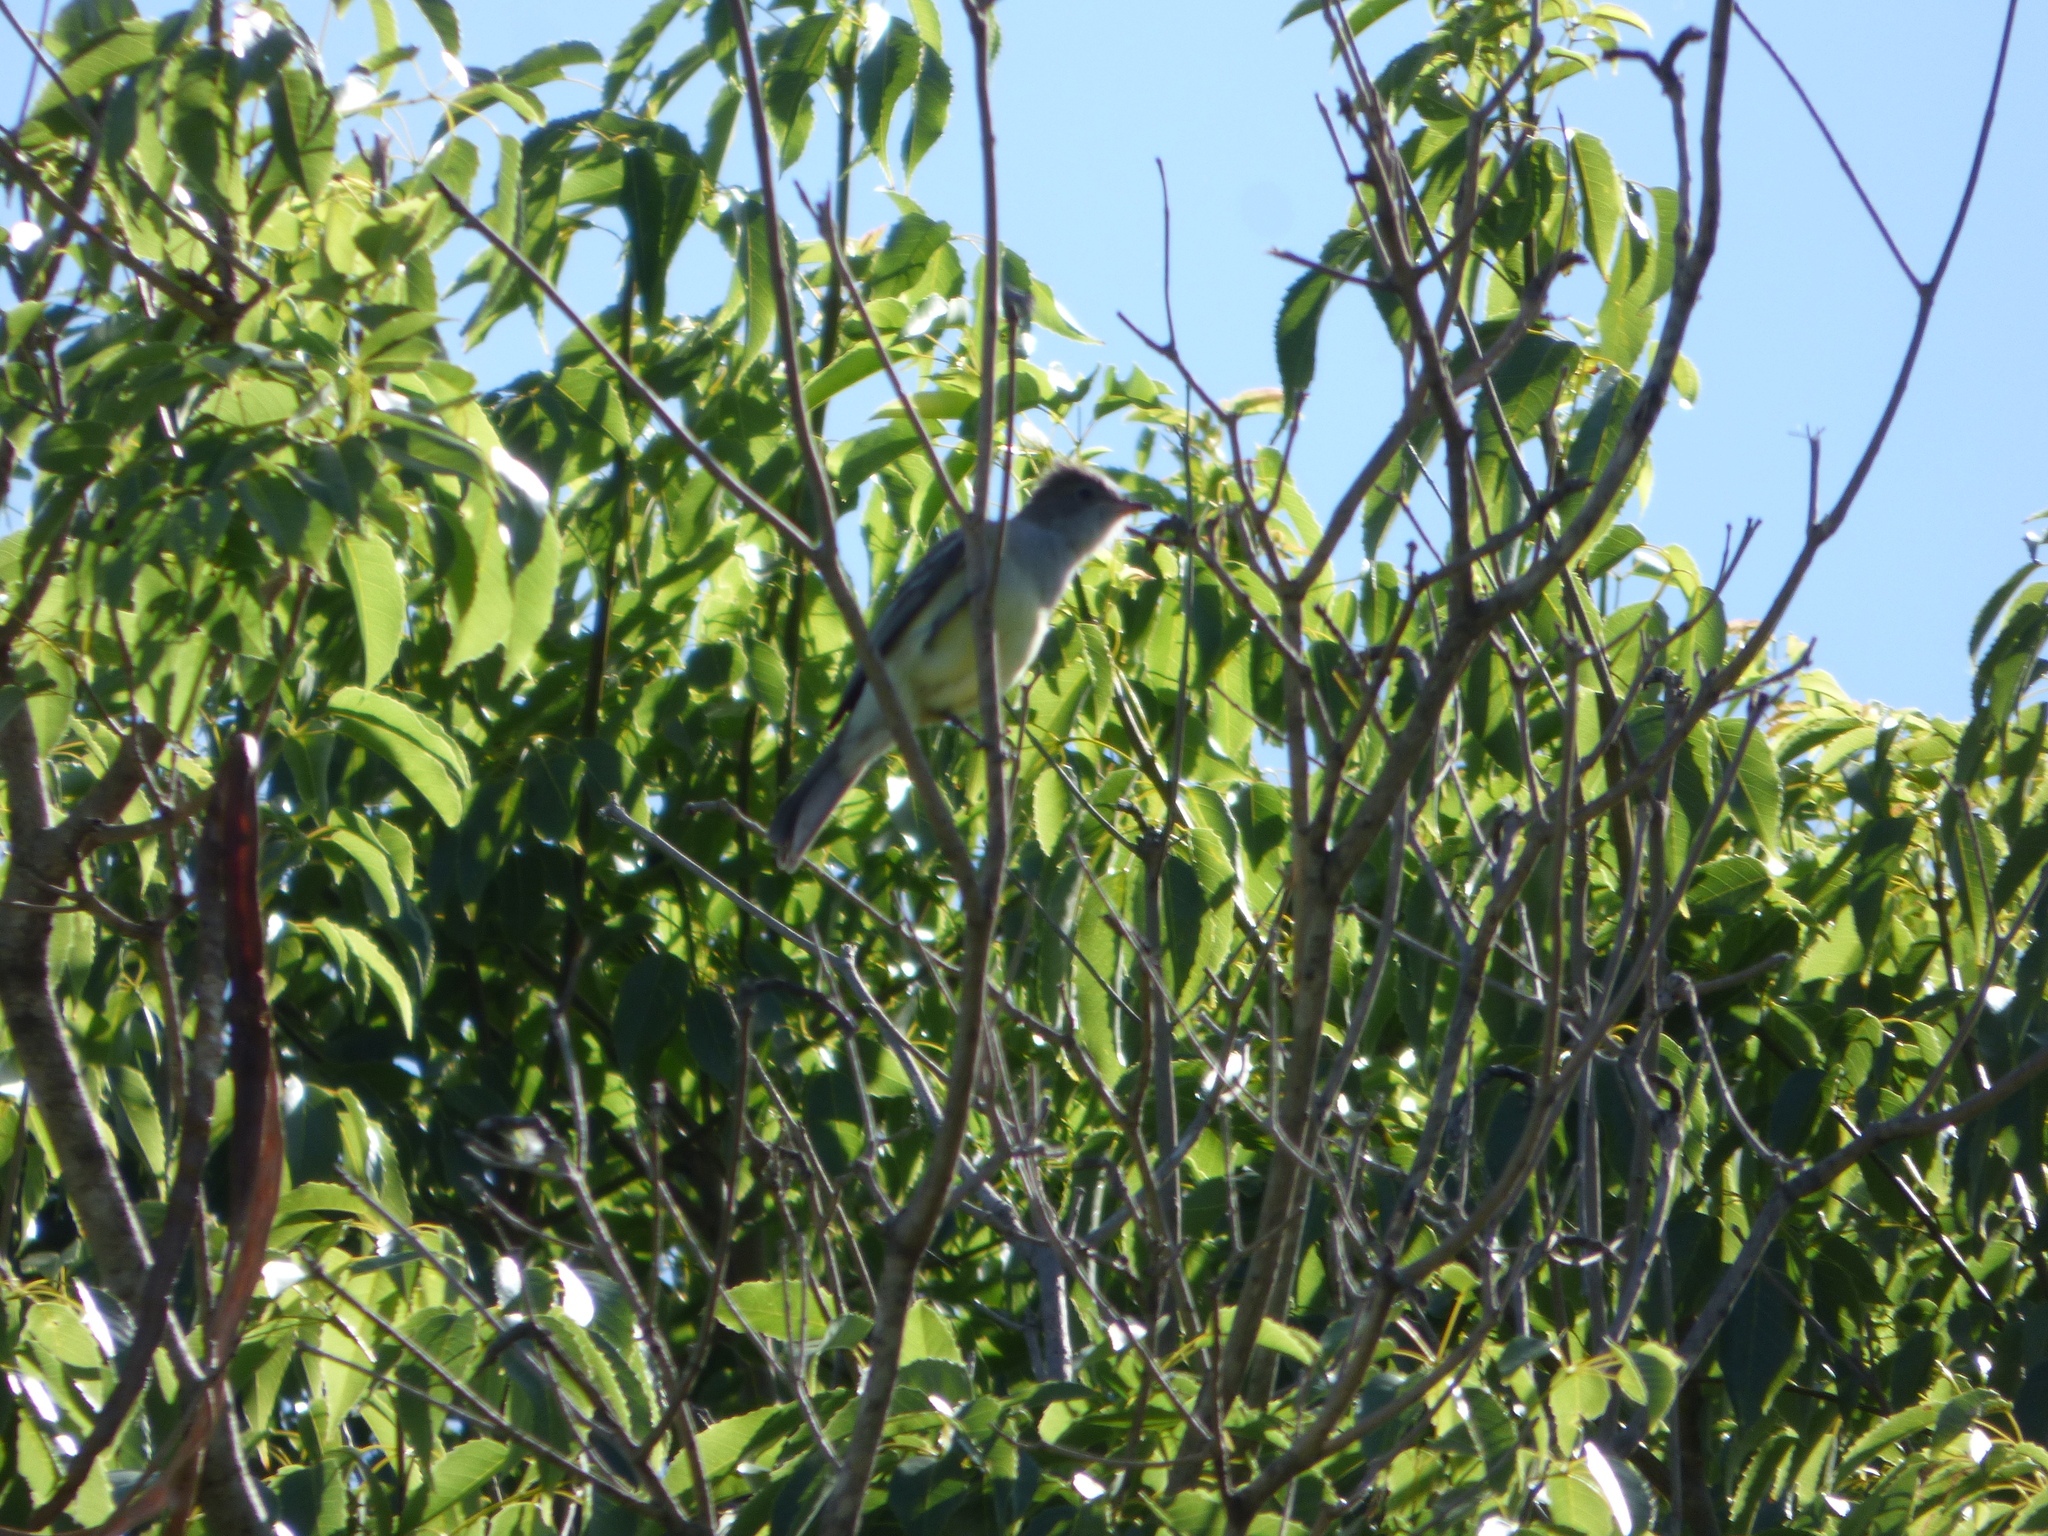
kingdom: Animalia
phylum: Chordata
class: Aves
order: Passeriformes
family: Tyrannidae
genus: Elaenia
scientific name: Elaenia spectabilis
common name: Large elaenia
